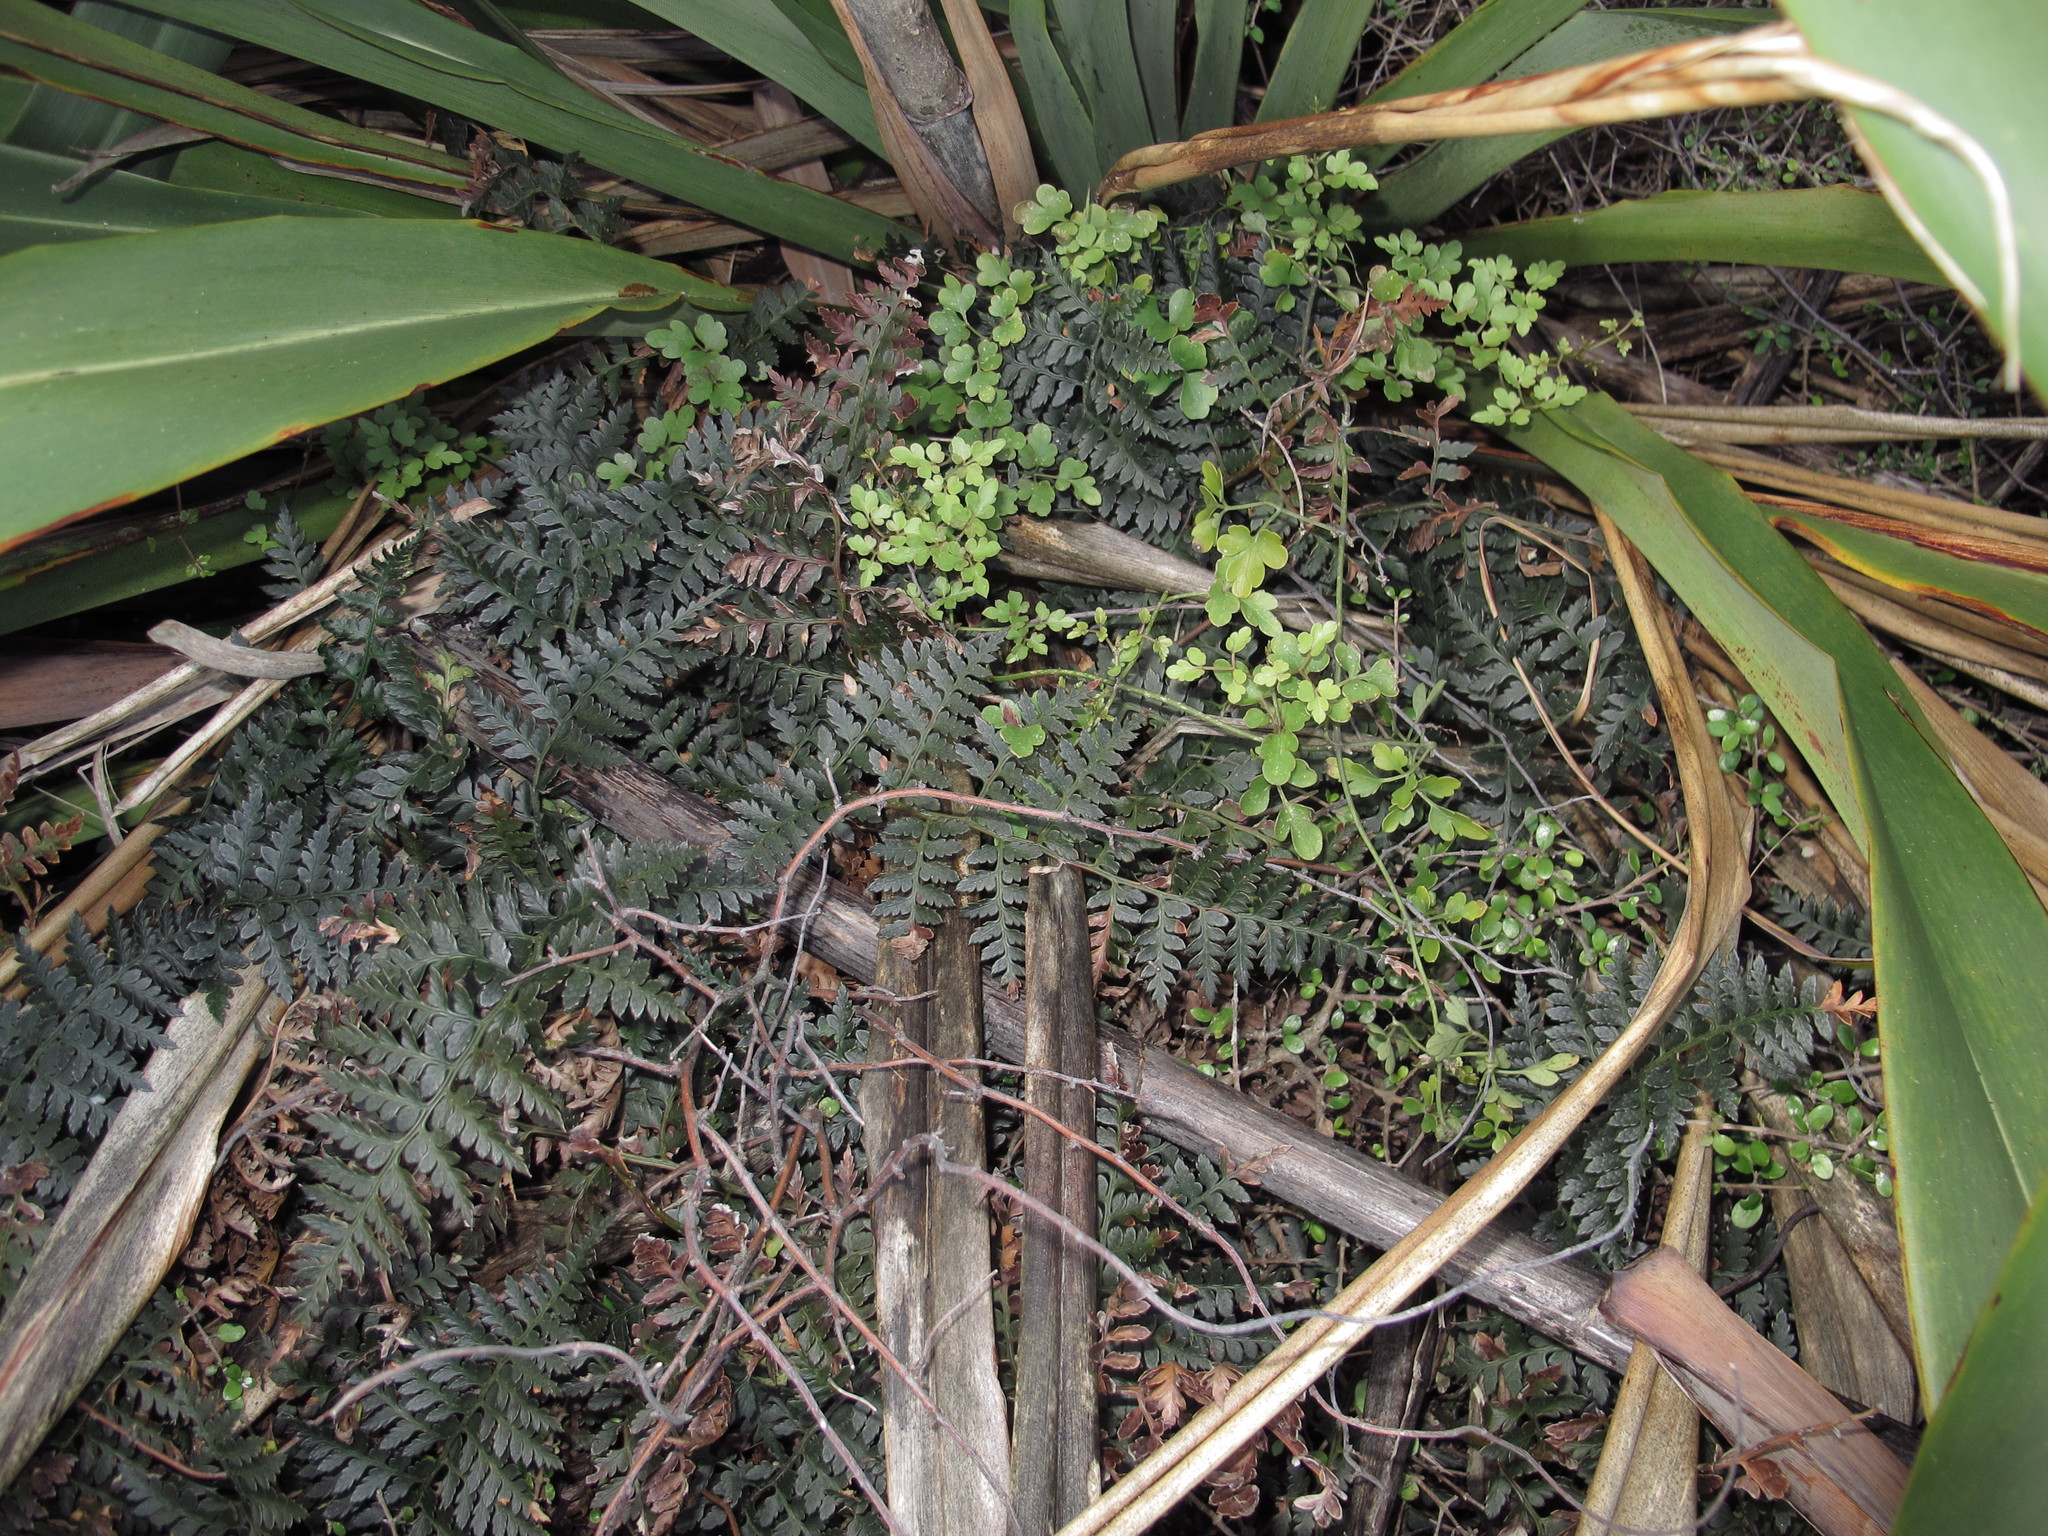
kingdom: Plantae
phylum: Tracheophyta
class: Polypodiopsida
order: Polypodiales
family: Dryopteridaceae
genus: Polystichum
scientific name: Polystichum oculatum
